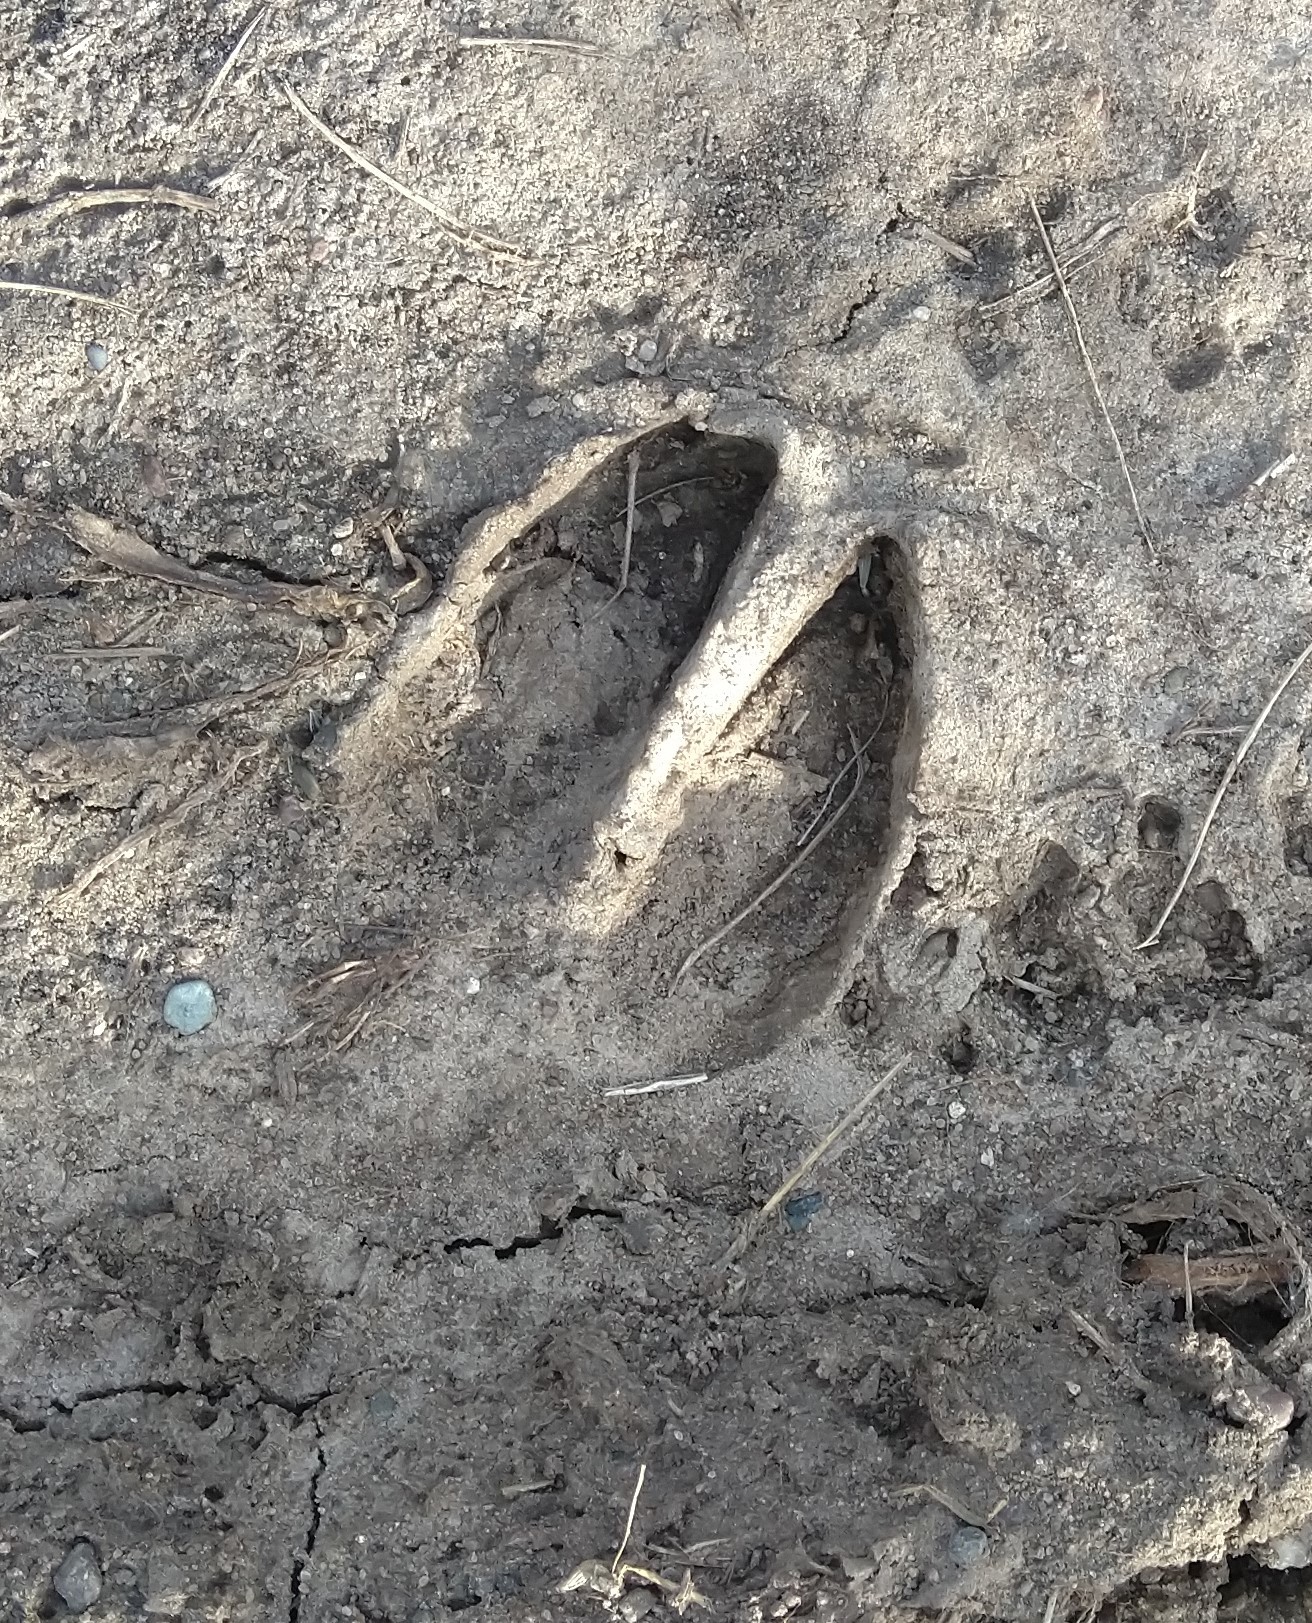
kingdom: Animalia
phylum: Chordata
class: Mammalia
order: Artiodactyla
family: Cervidae
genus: Odocoileus
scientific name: Odocoileus virginianus
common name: White-tailed deer
